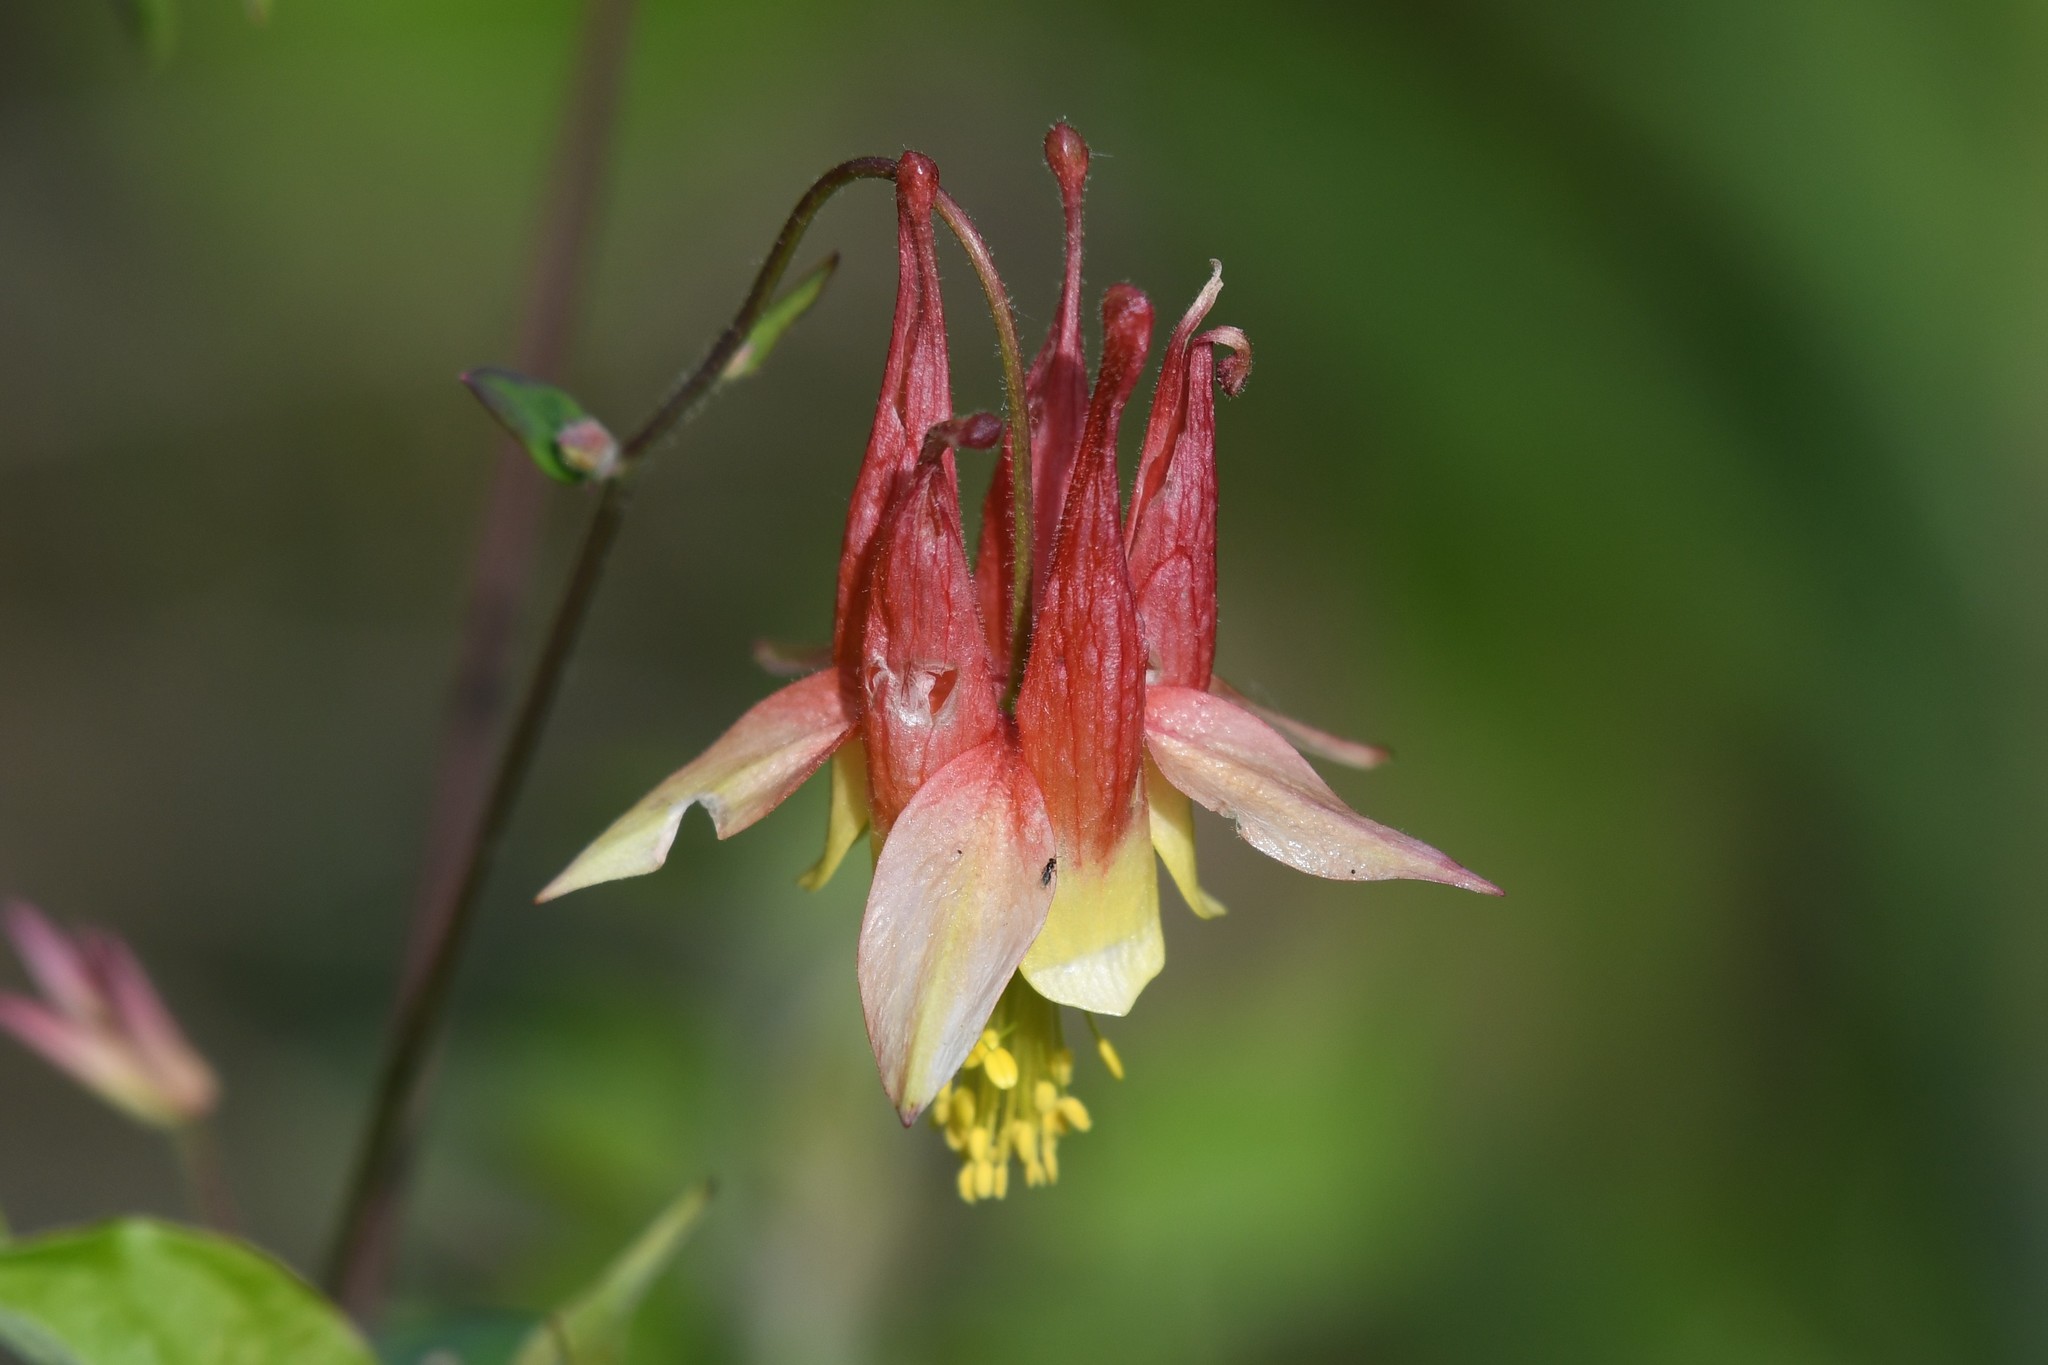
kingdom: Plantae
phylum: Tracheophyta
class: Magnoliopsida
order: Ranunculales
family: Ranunculaceae
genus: Aquilegia
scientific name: Aquilegia canadensis
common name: American columbine
